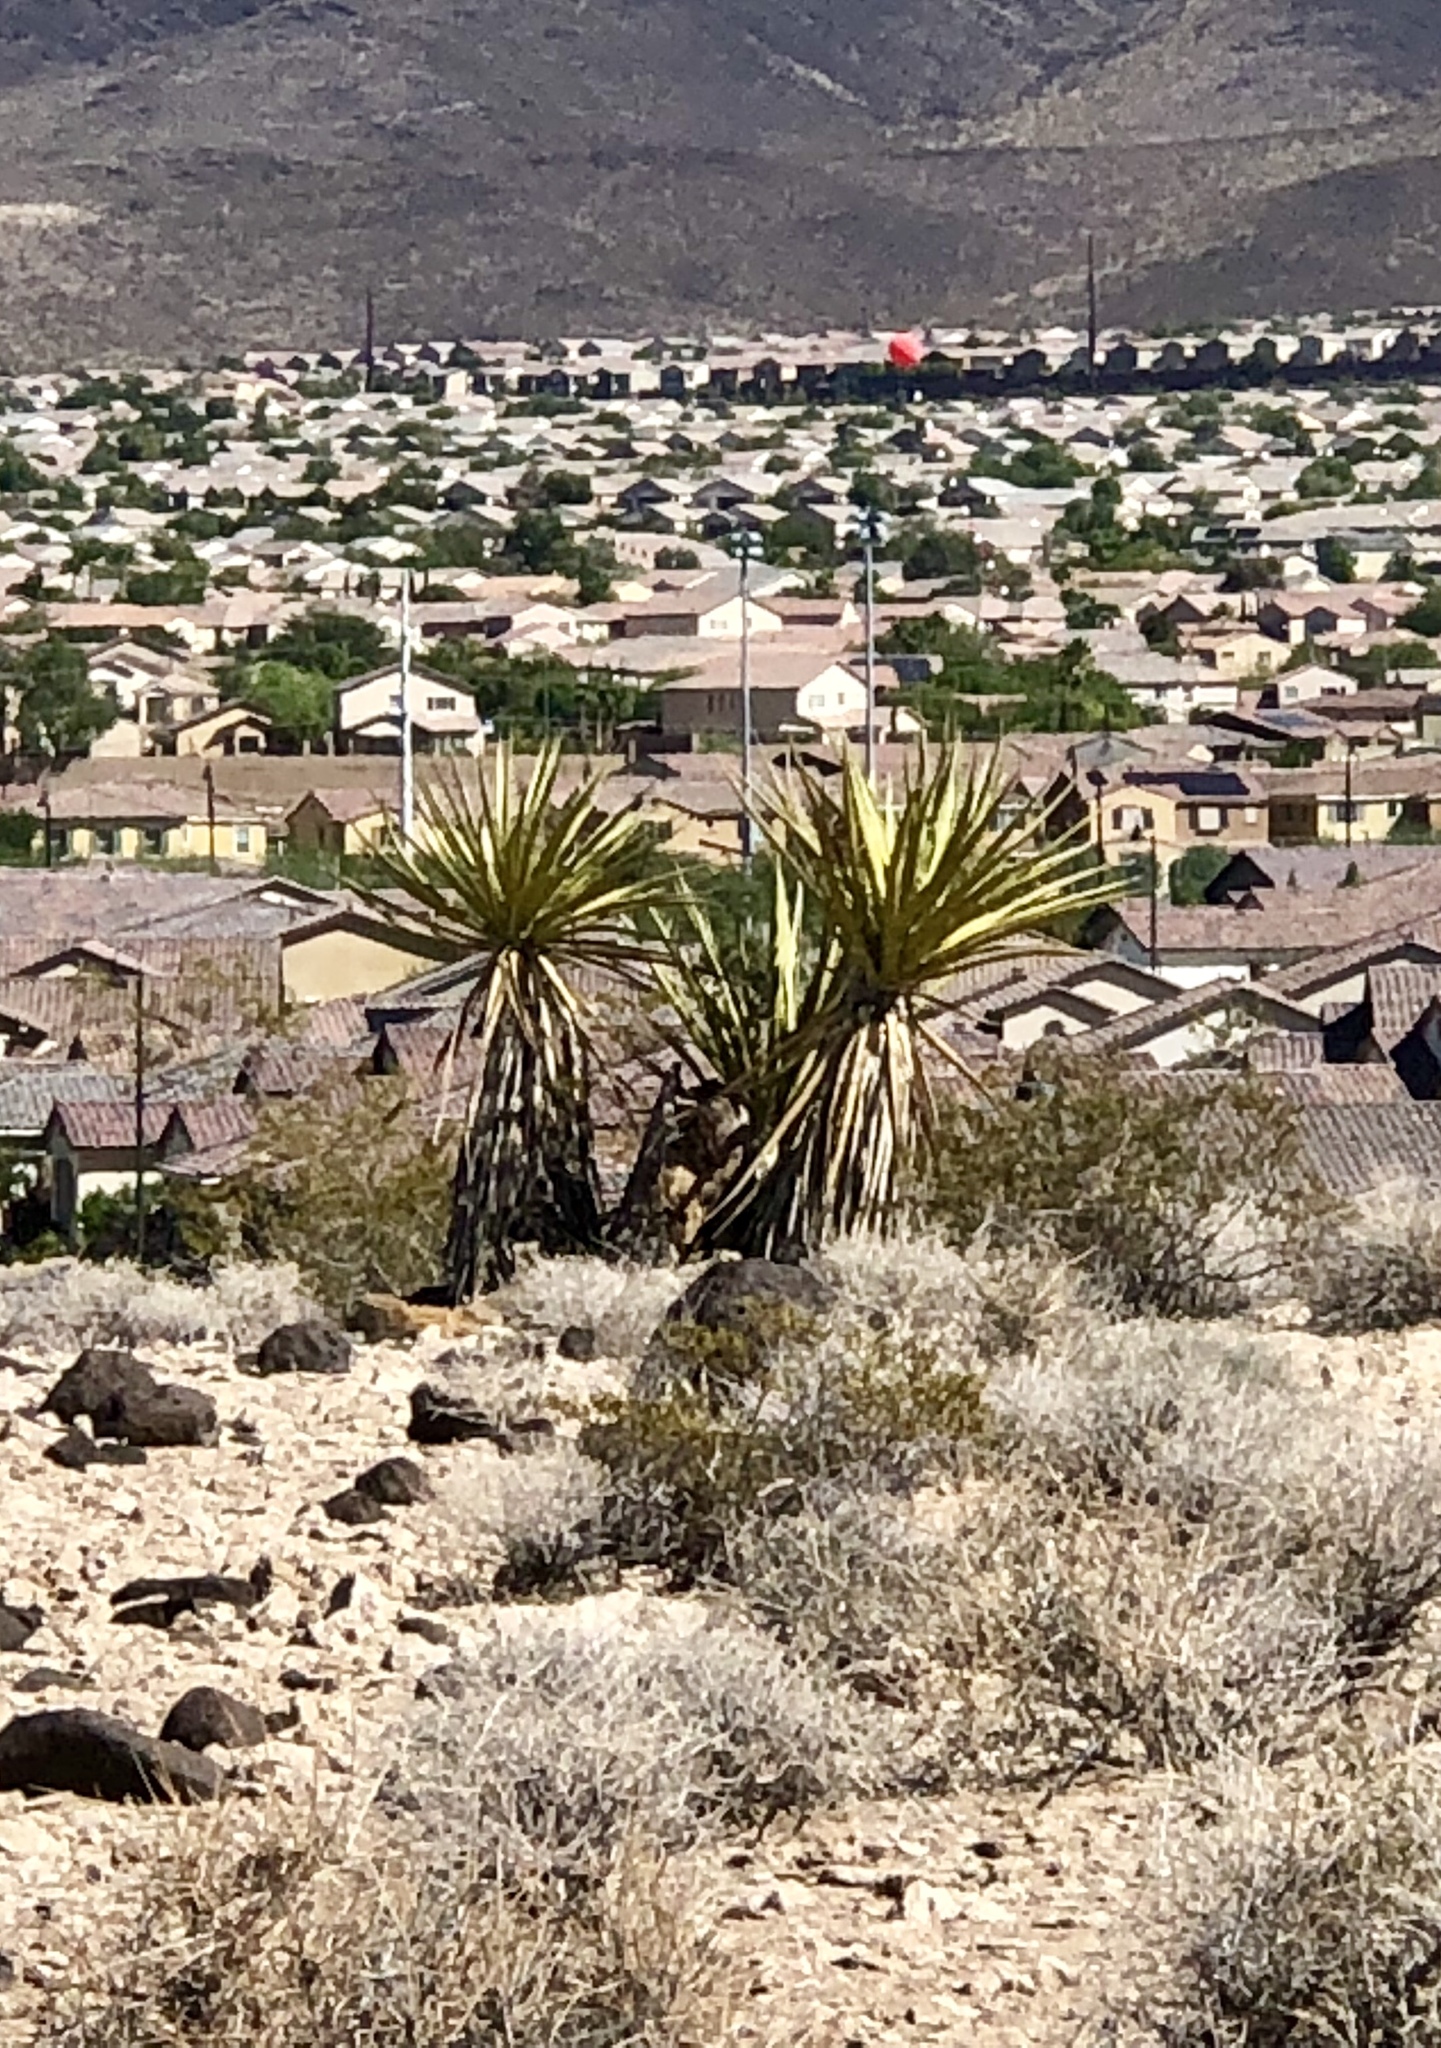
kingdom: Plantae
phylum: Tracheophyta
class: Liliopsida
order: Asparagales
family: Asparagaceae
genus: Yucca
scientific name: Yucca schidigera
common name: Mojave yucca
